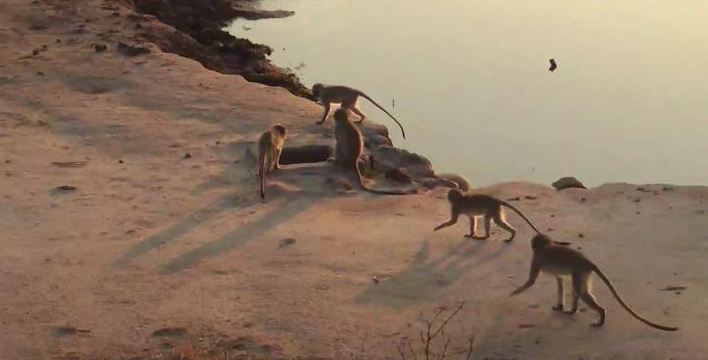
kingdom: Animalia
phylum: Chordata
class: Mammalia
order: Primates
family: Cercopithecidae
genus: Chlorocebus
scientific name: Chlorocebus pygerythrus
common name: Vervet monkey
